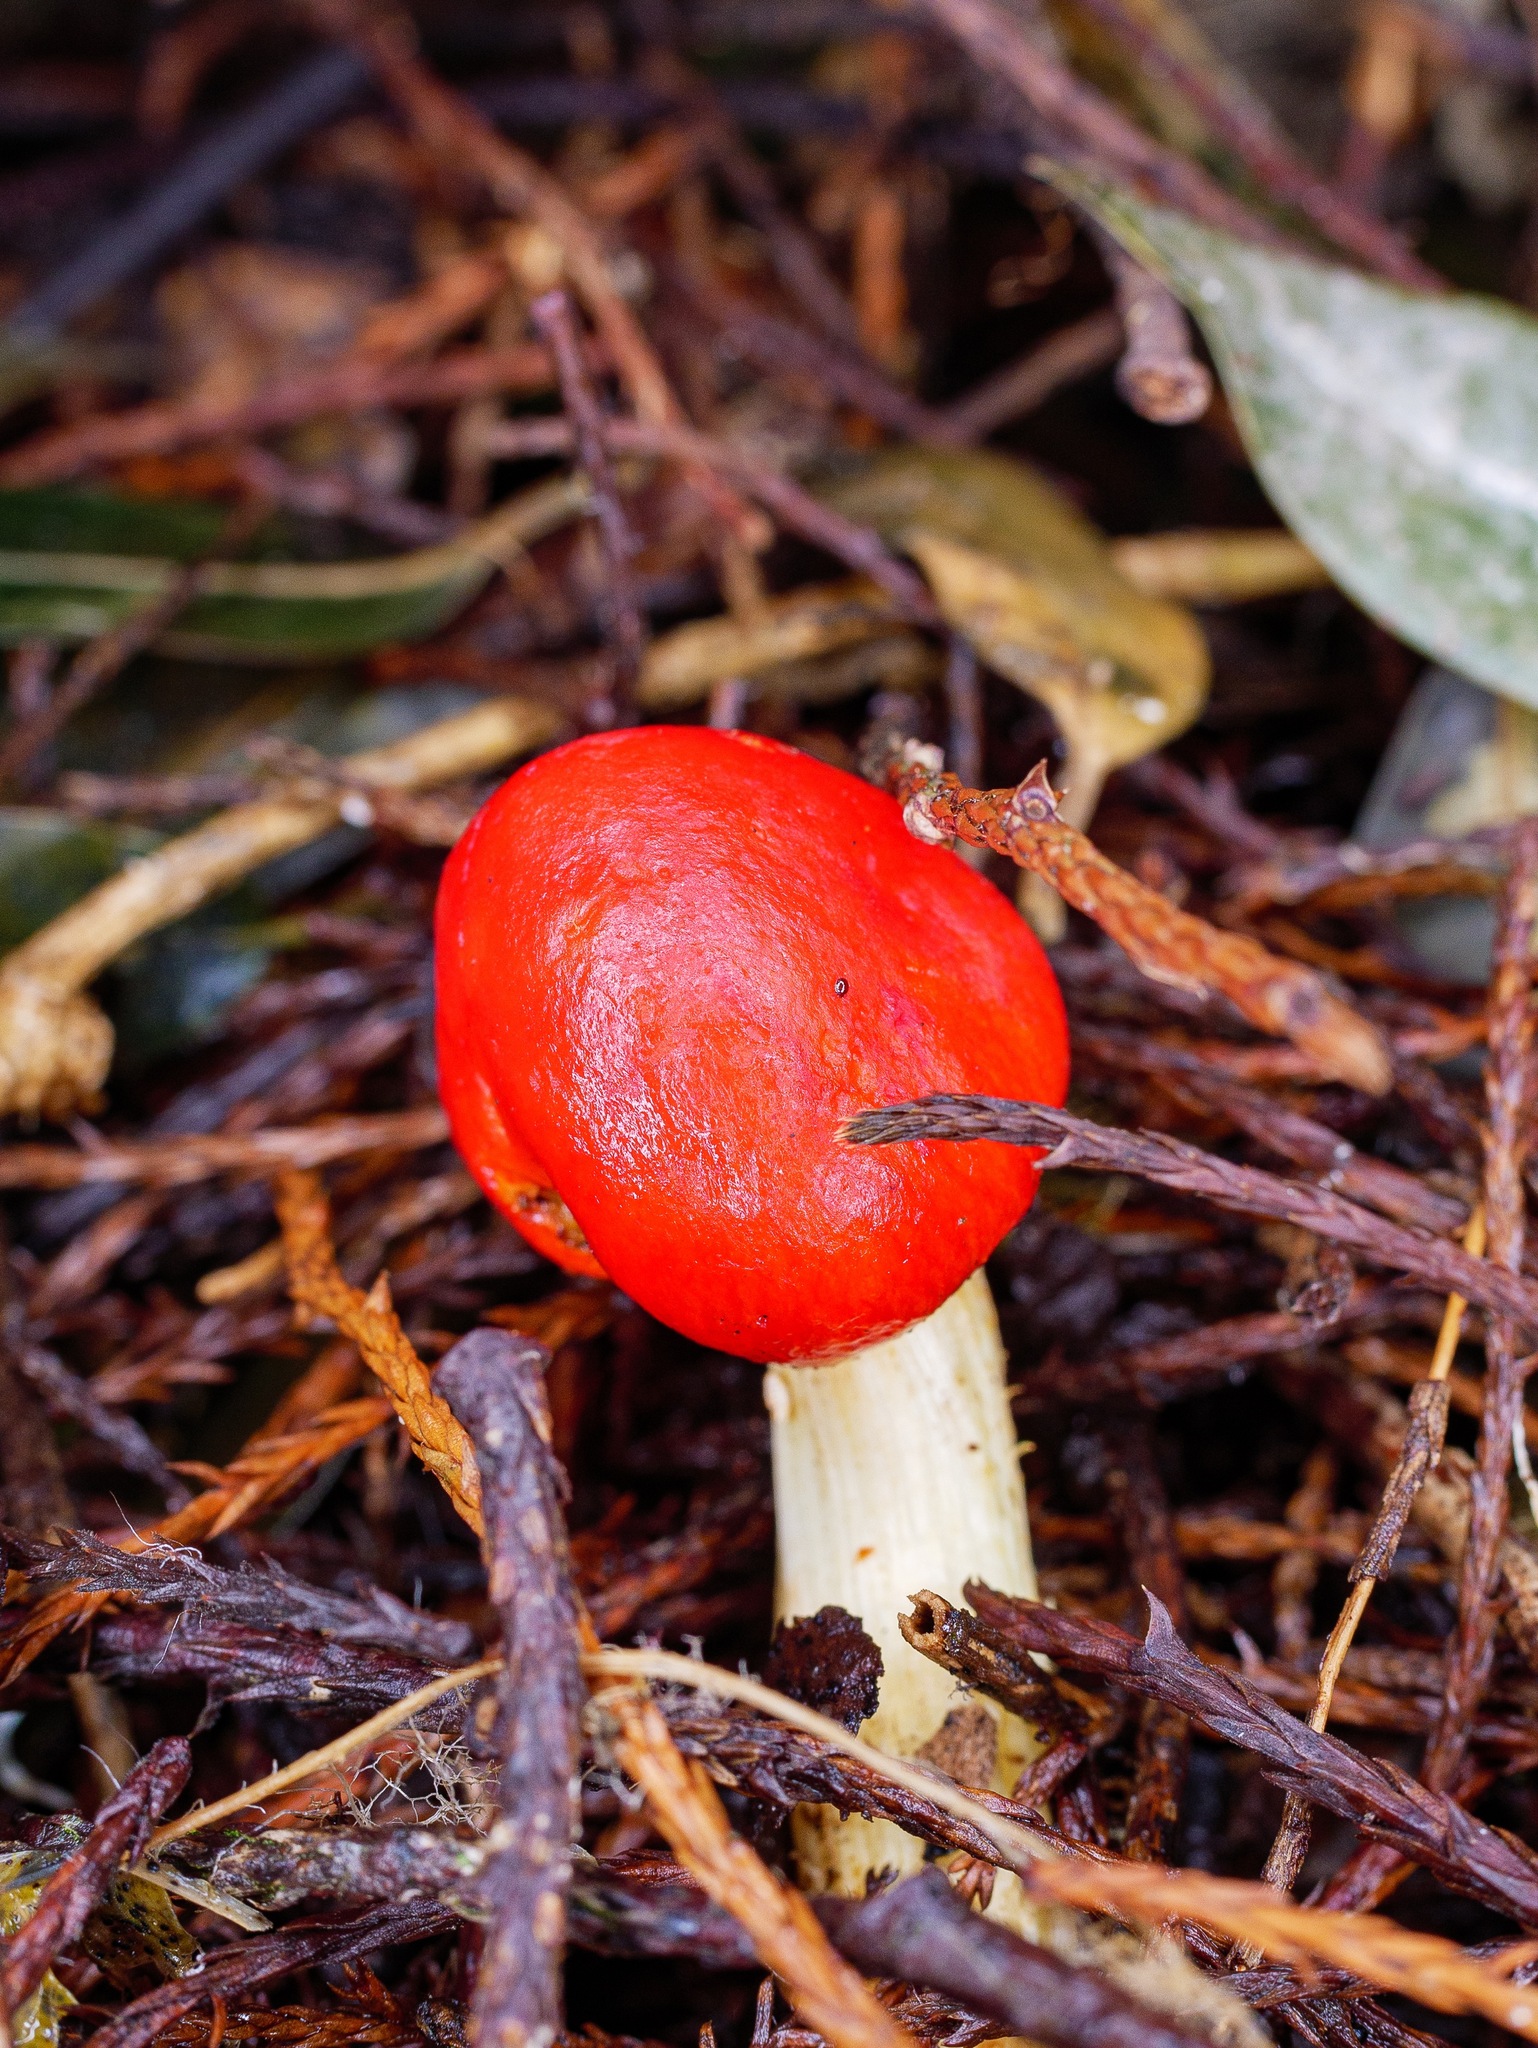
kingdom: Fungi
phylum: Basidiomycota
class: Agaricomycetes
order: Agaricales
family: Strophariaceae
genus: Leratiomyces
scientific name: Leratiomyces erythrocephalus
